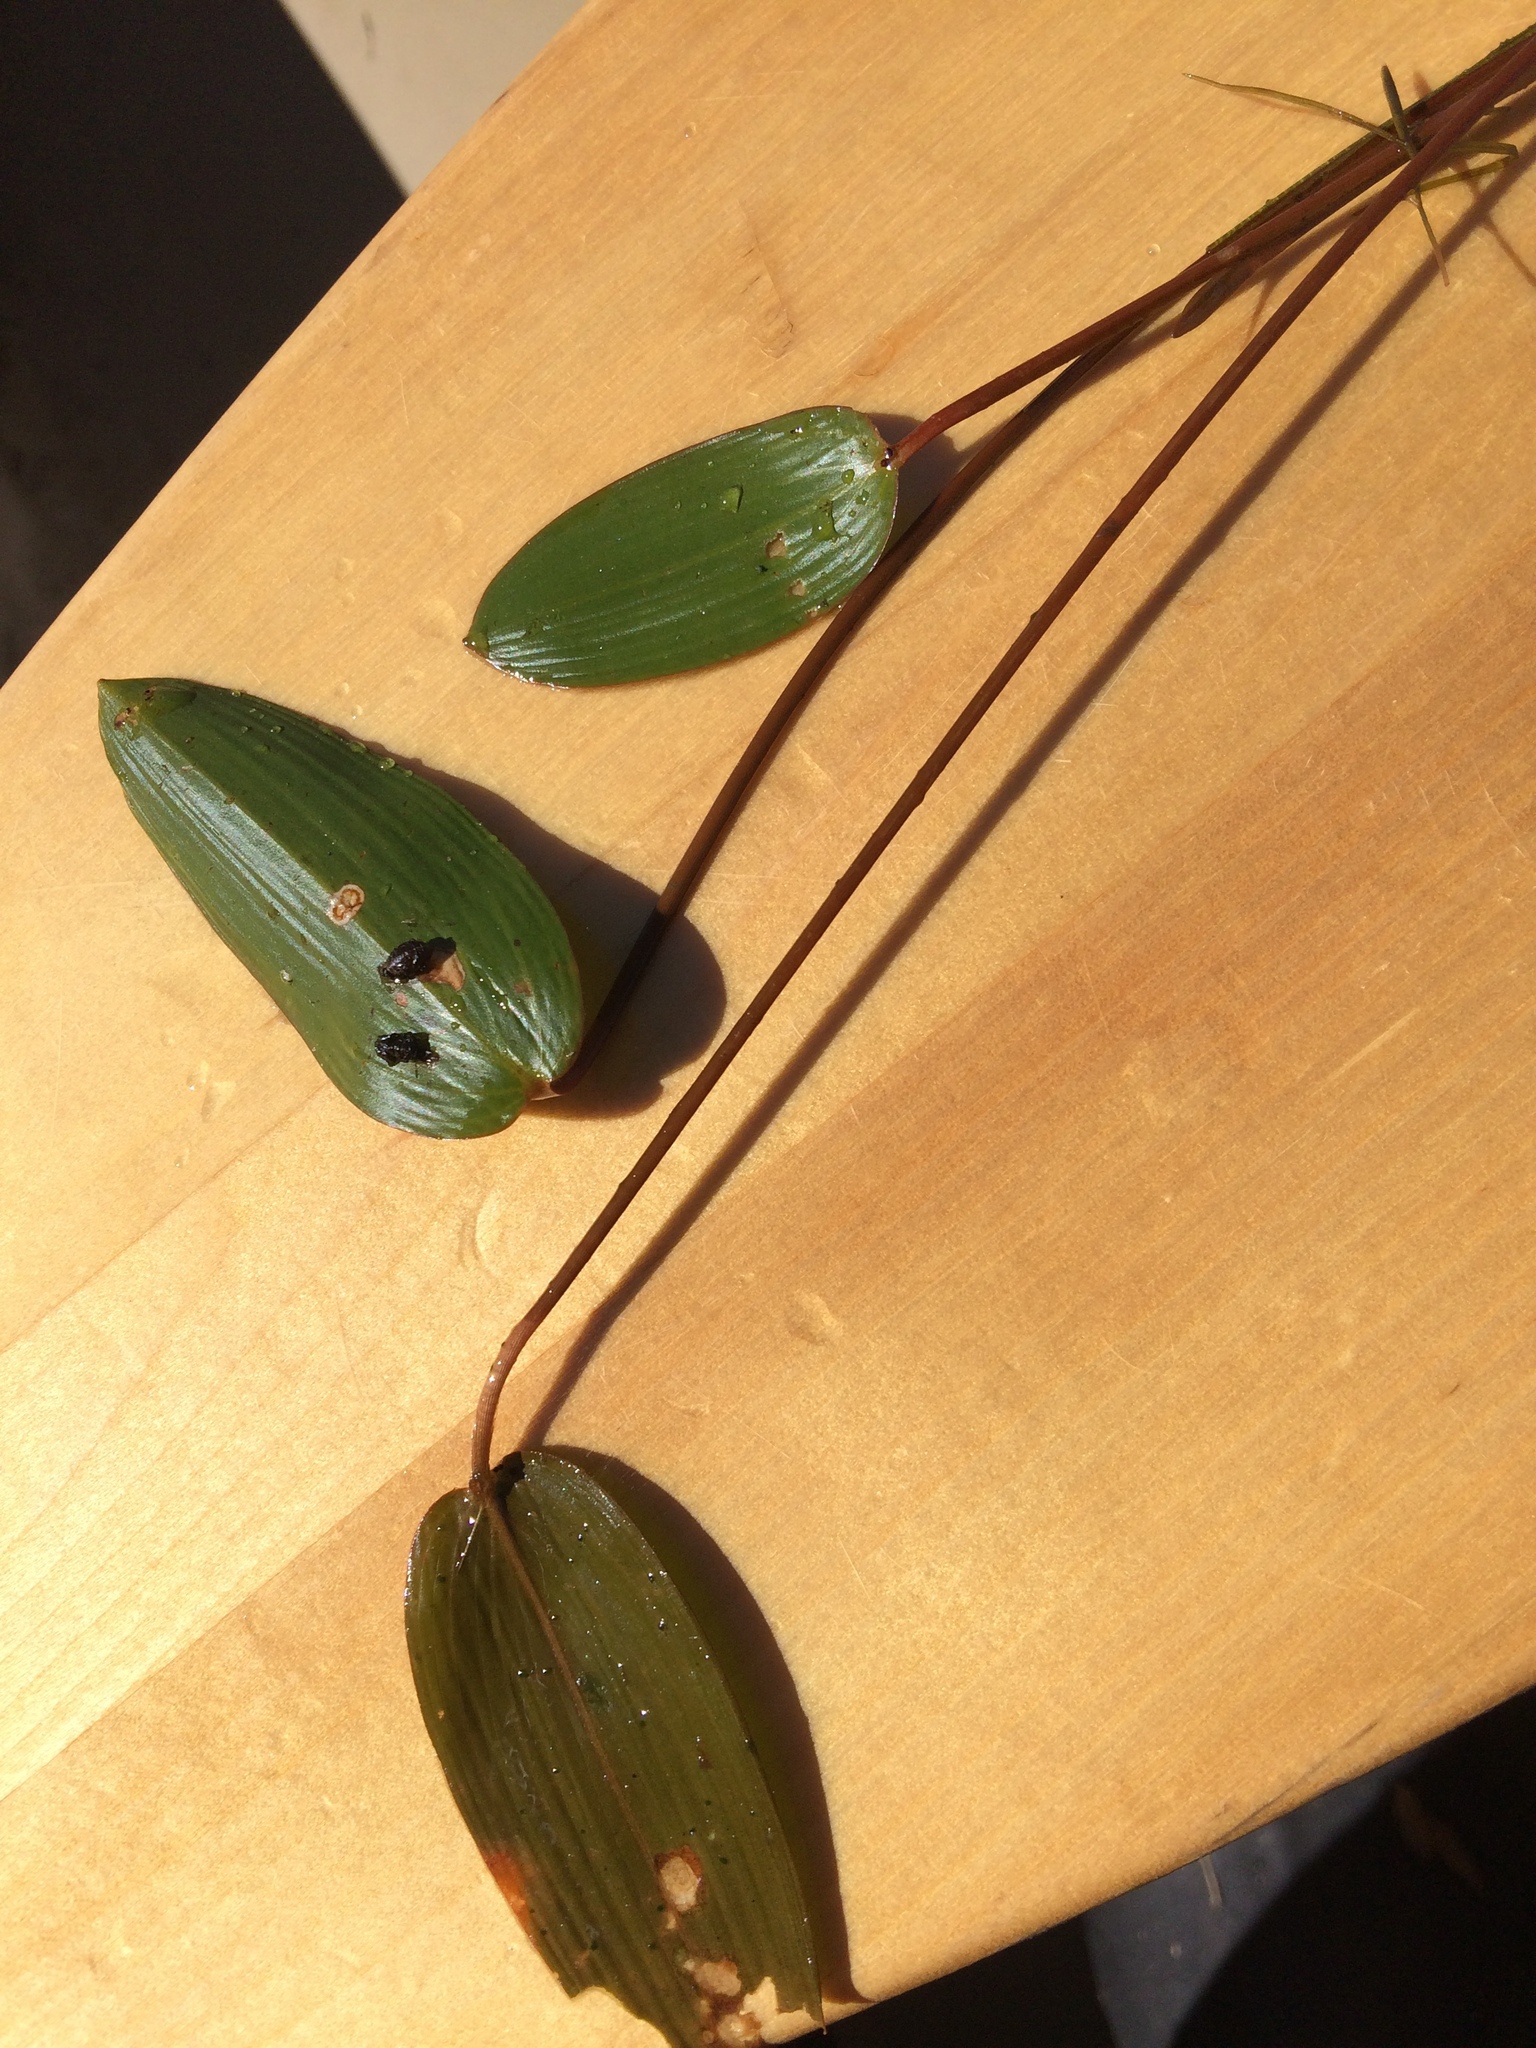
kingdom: Plantae
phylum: Tracheophyta
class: Liliopsida
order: Alismatales
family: Potamogetonaceae
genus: Potamogeton
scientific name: Potamogeton natans
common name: Broad-leaved pondweed
